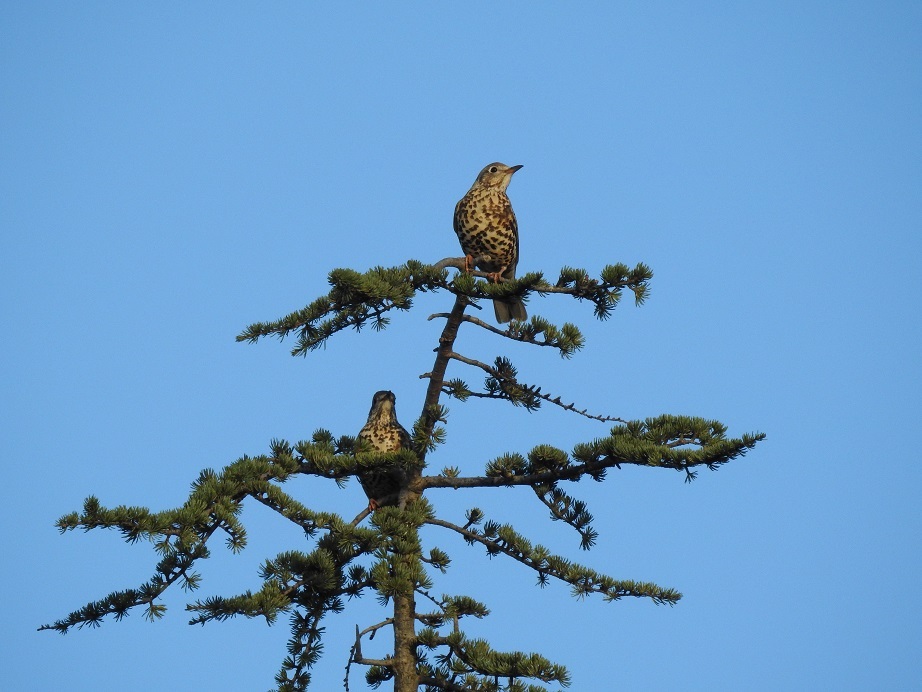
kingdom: Animalia
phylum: Chordata
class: Aves
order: Passeriformes
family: Turdidae
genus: Turdus
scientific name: Turdus viscivorus
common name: Mistle thrush
